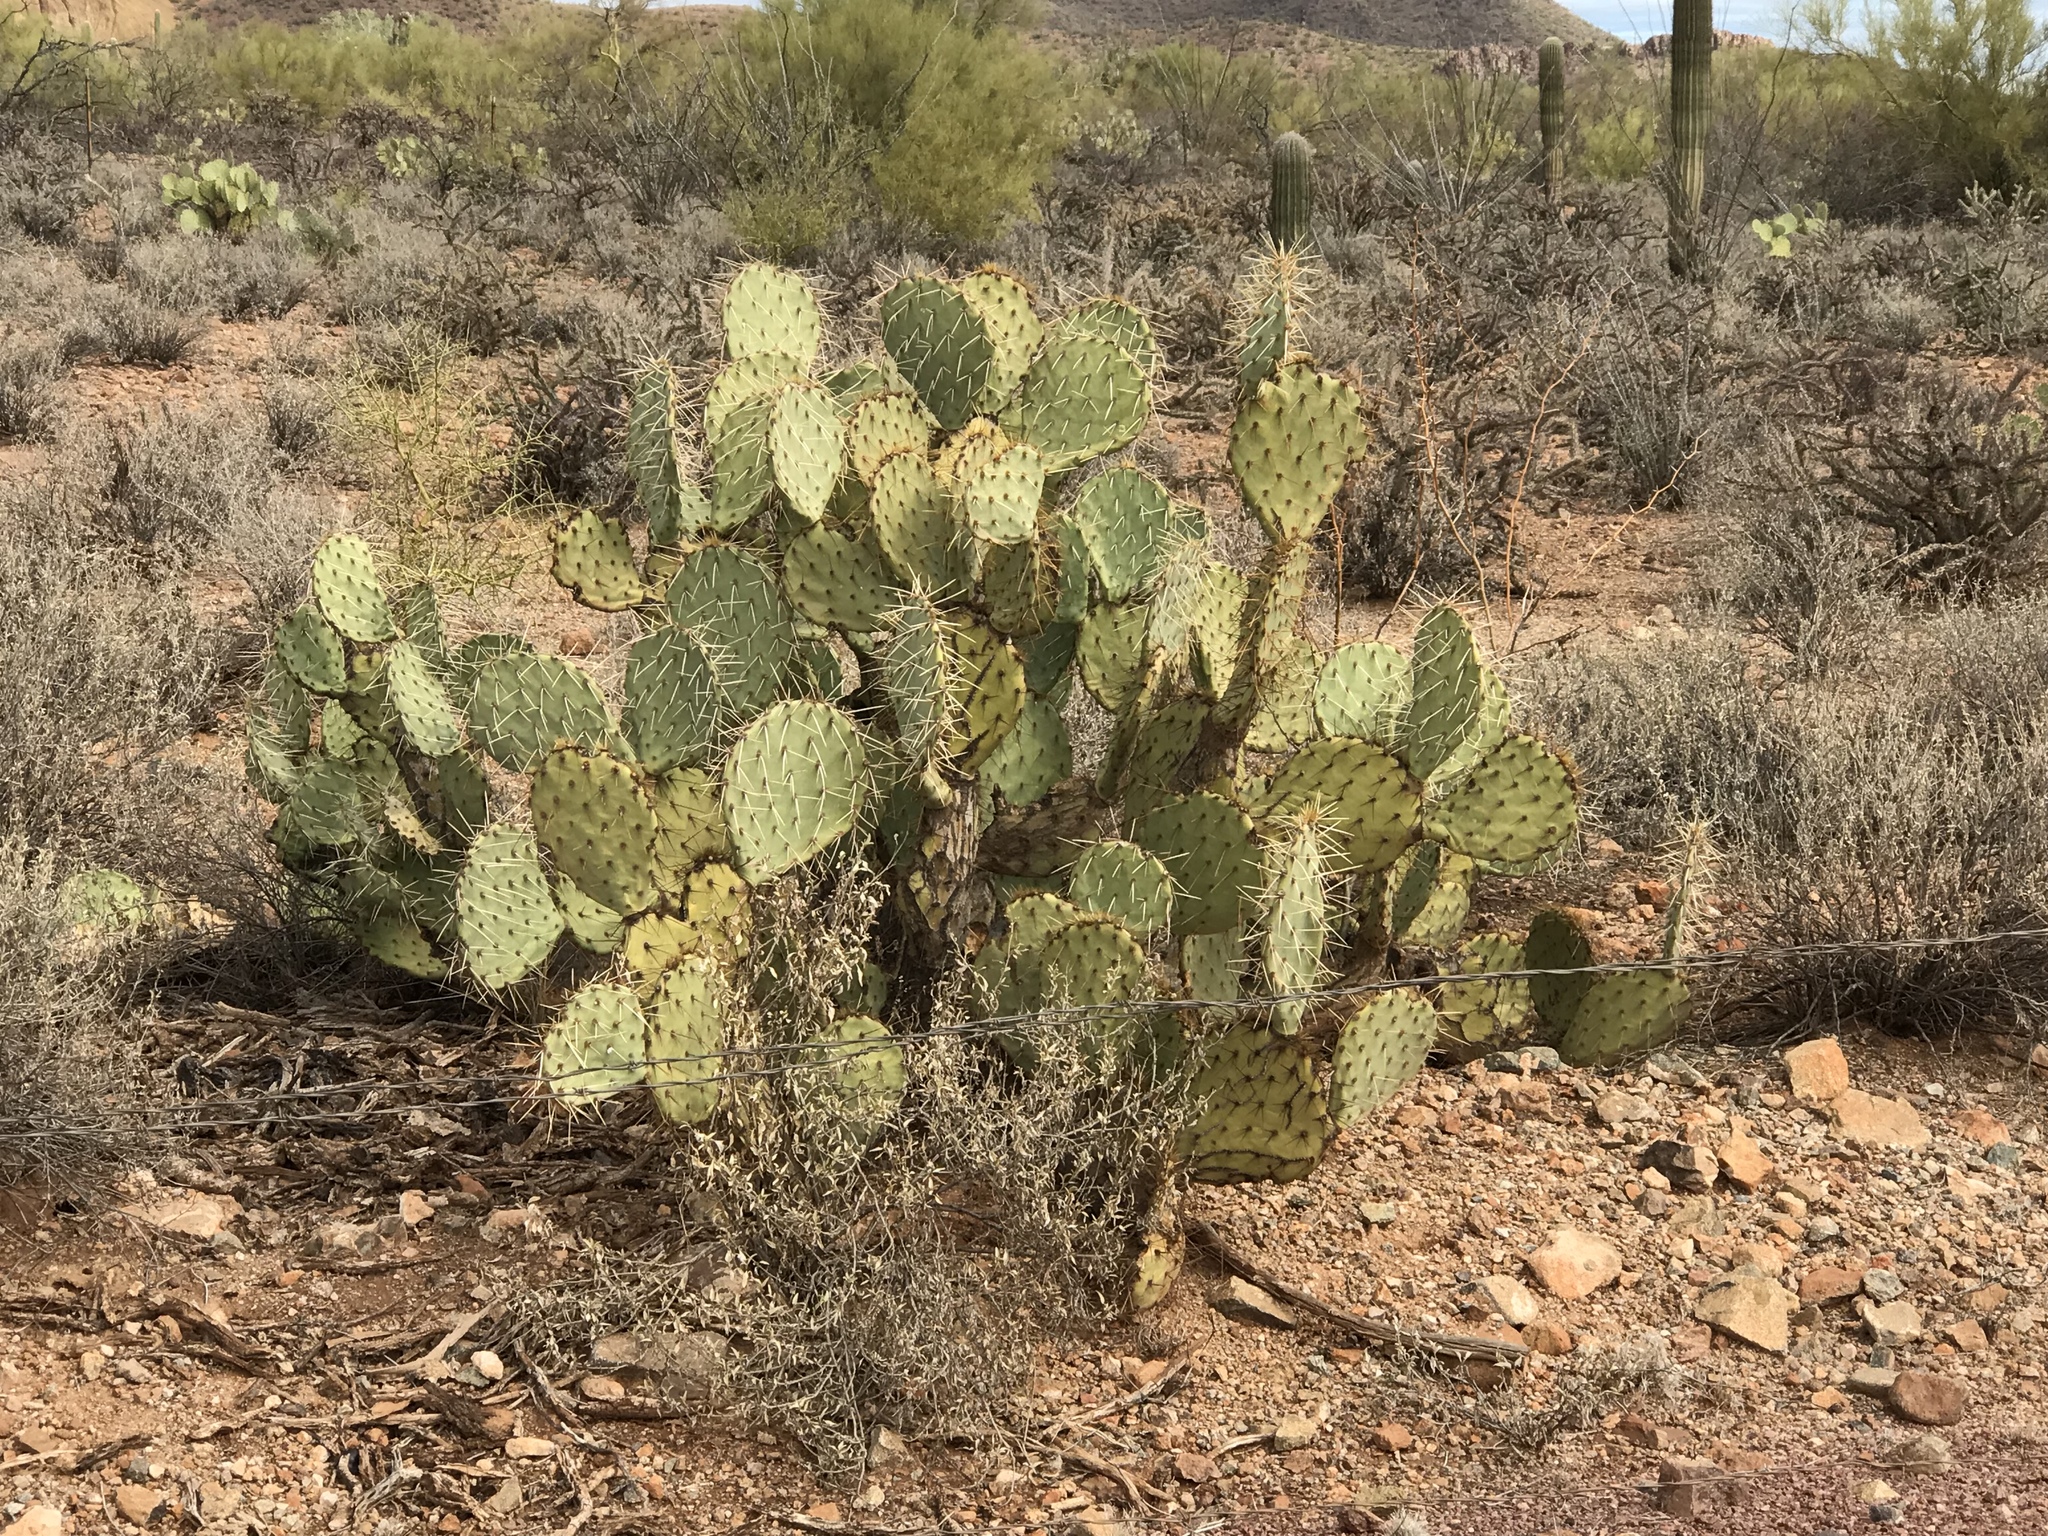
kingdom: Plantae
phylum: Tracheophyta
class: Magnoliopsida
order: Caryophyllales
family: Cactaceae
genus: Opuntia
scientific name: Opuntia chlorotica
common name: Dollar-joint prickly-pear
